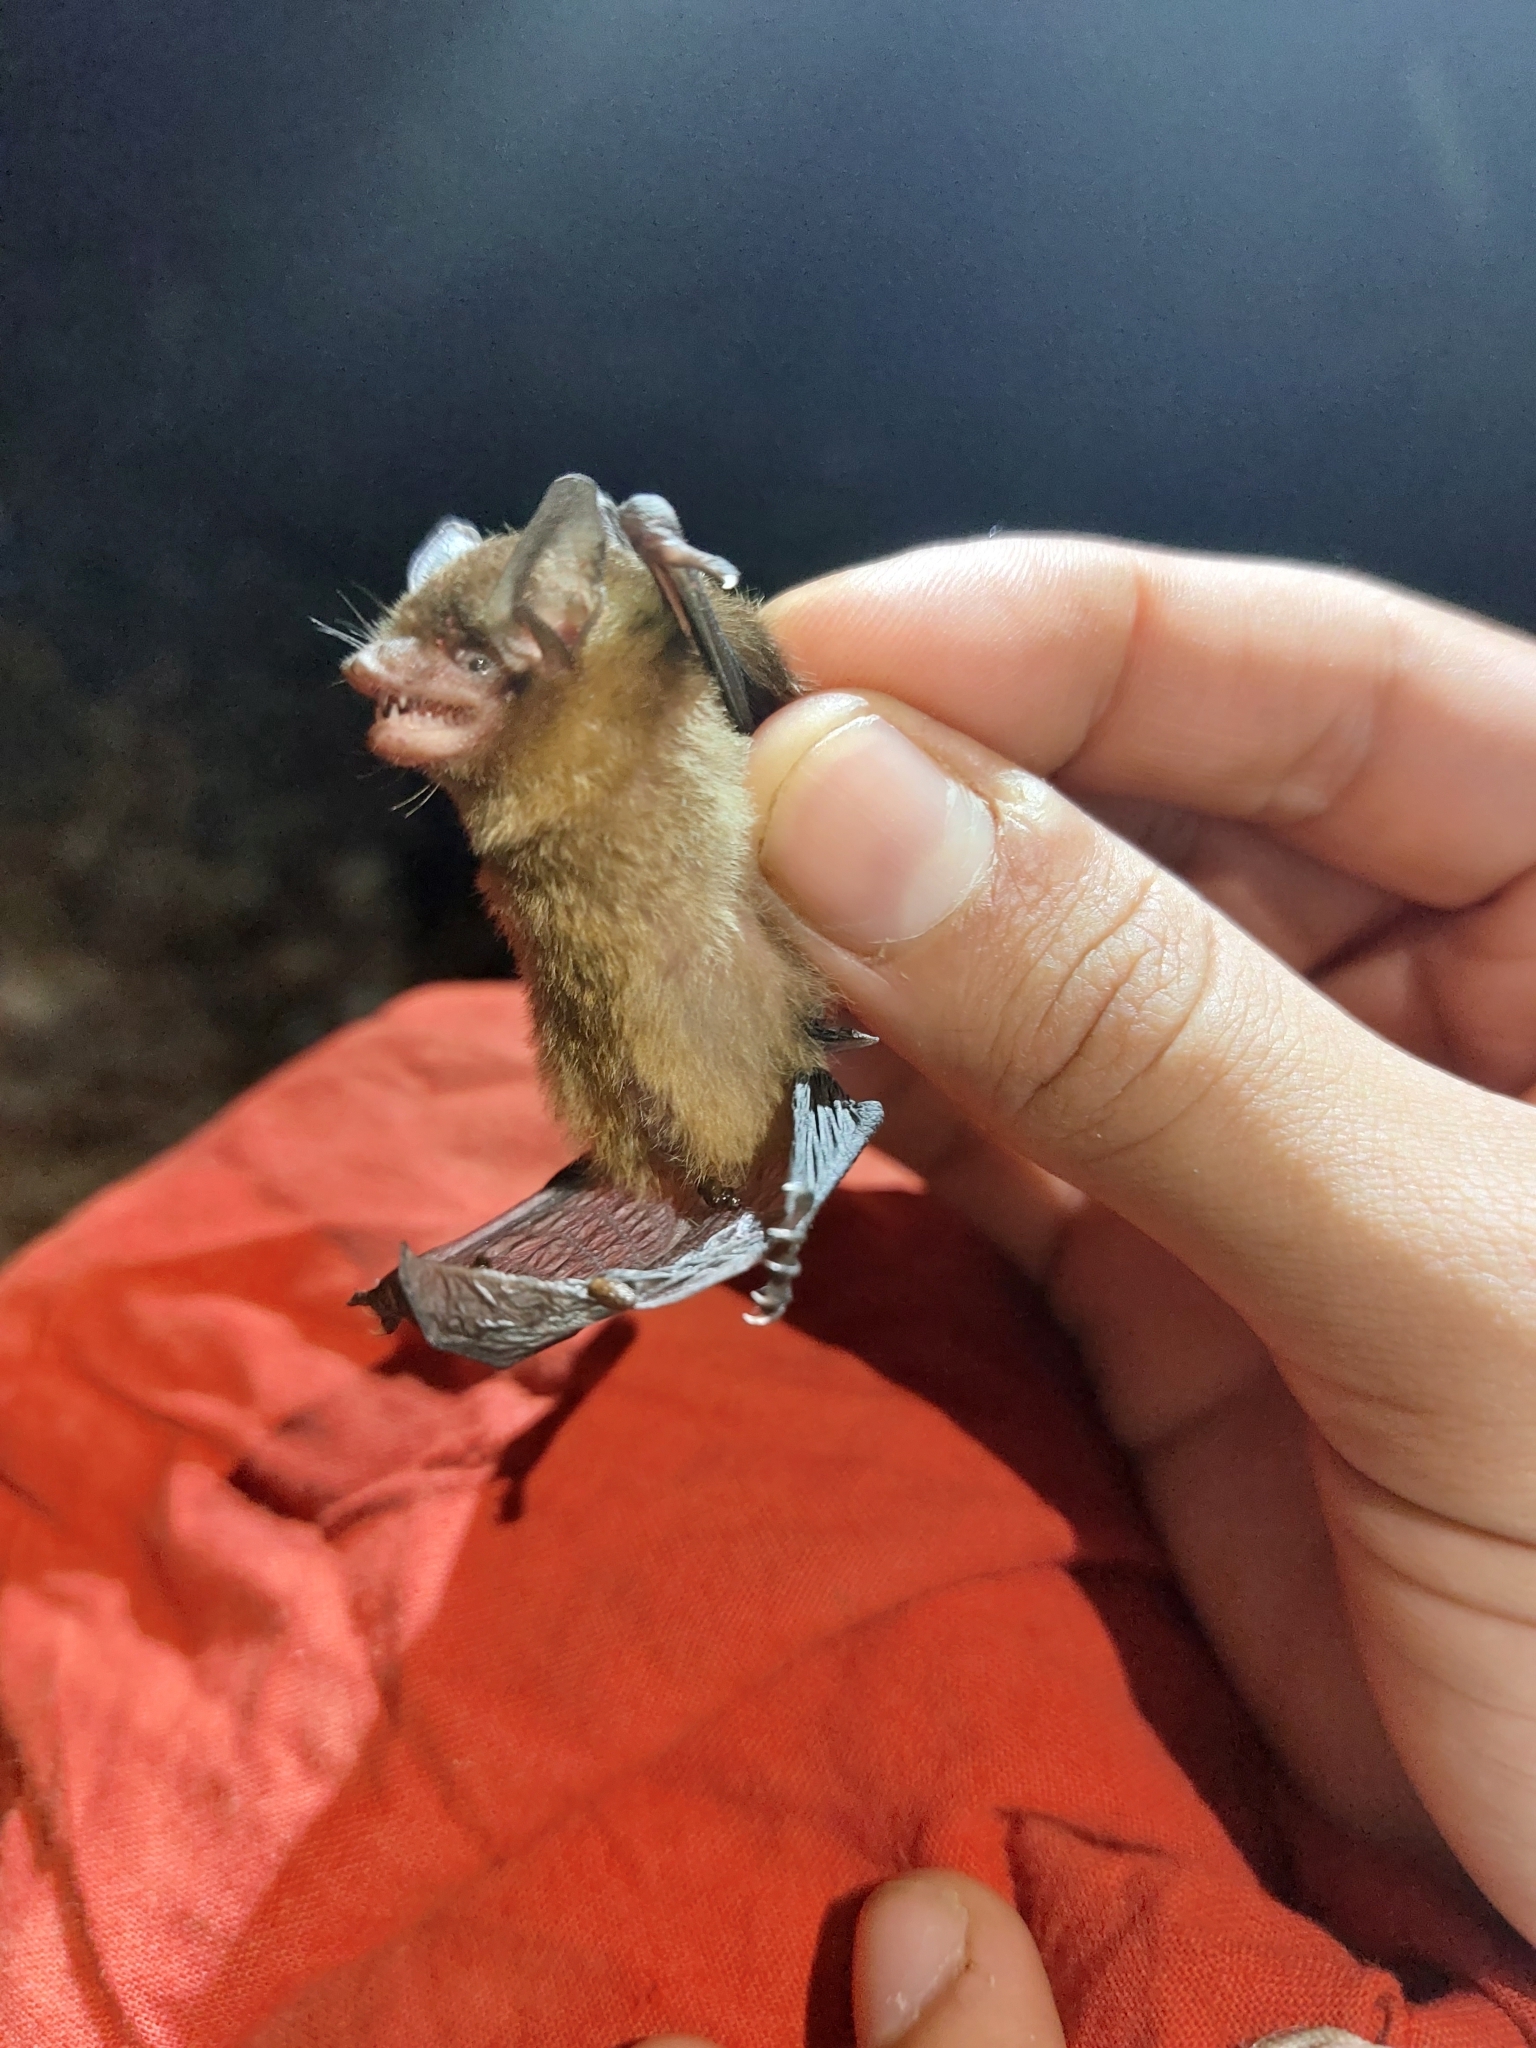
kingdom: Animalia
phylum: Chordata
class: Mammalia
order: Chiroptera
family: Vespertilionidae
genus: Rhogeessa
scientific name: Rhogeessa aenea
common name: Yucatan yellow bat
